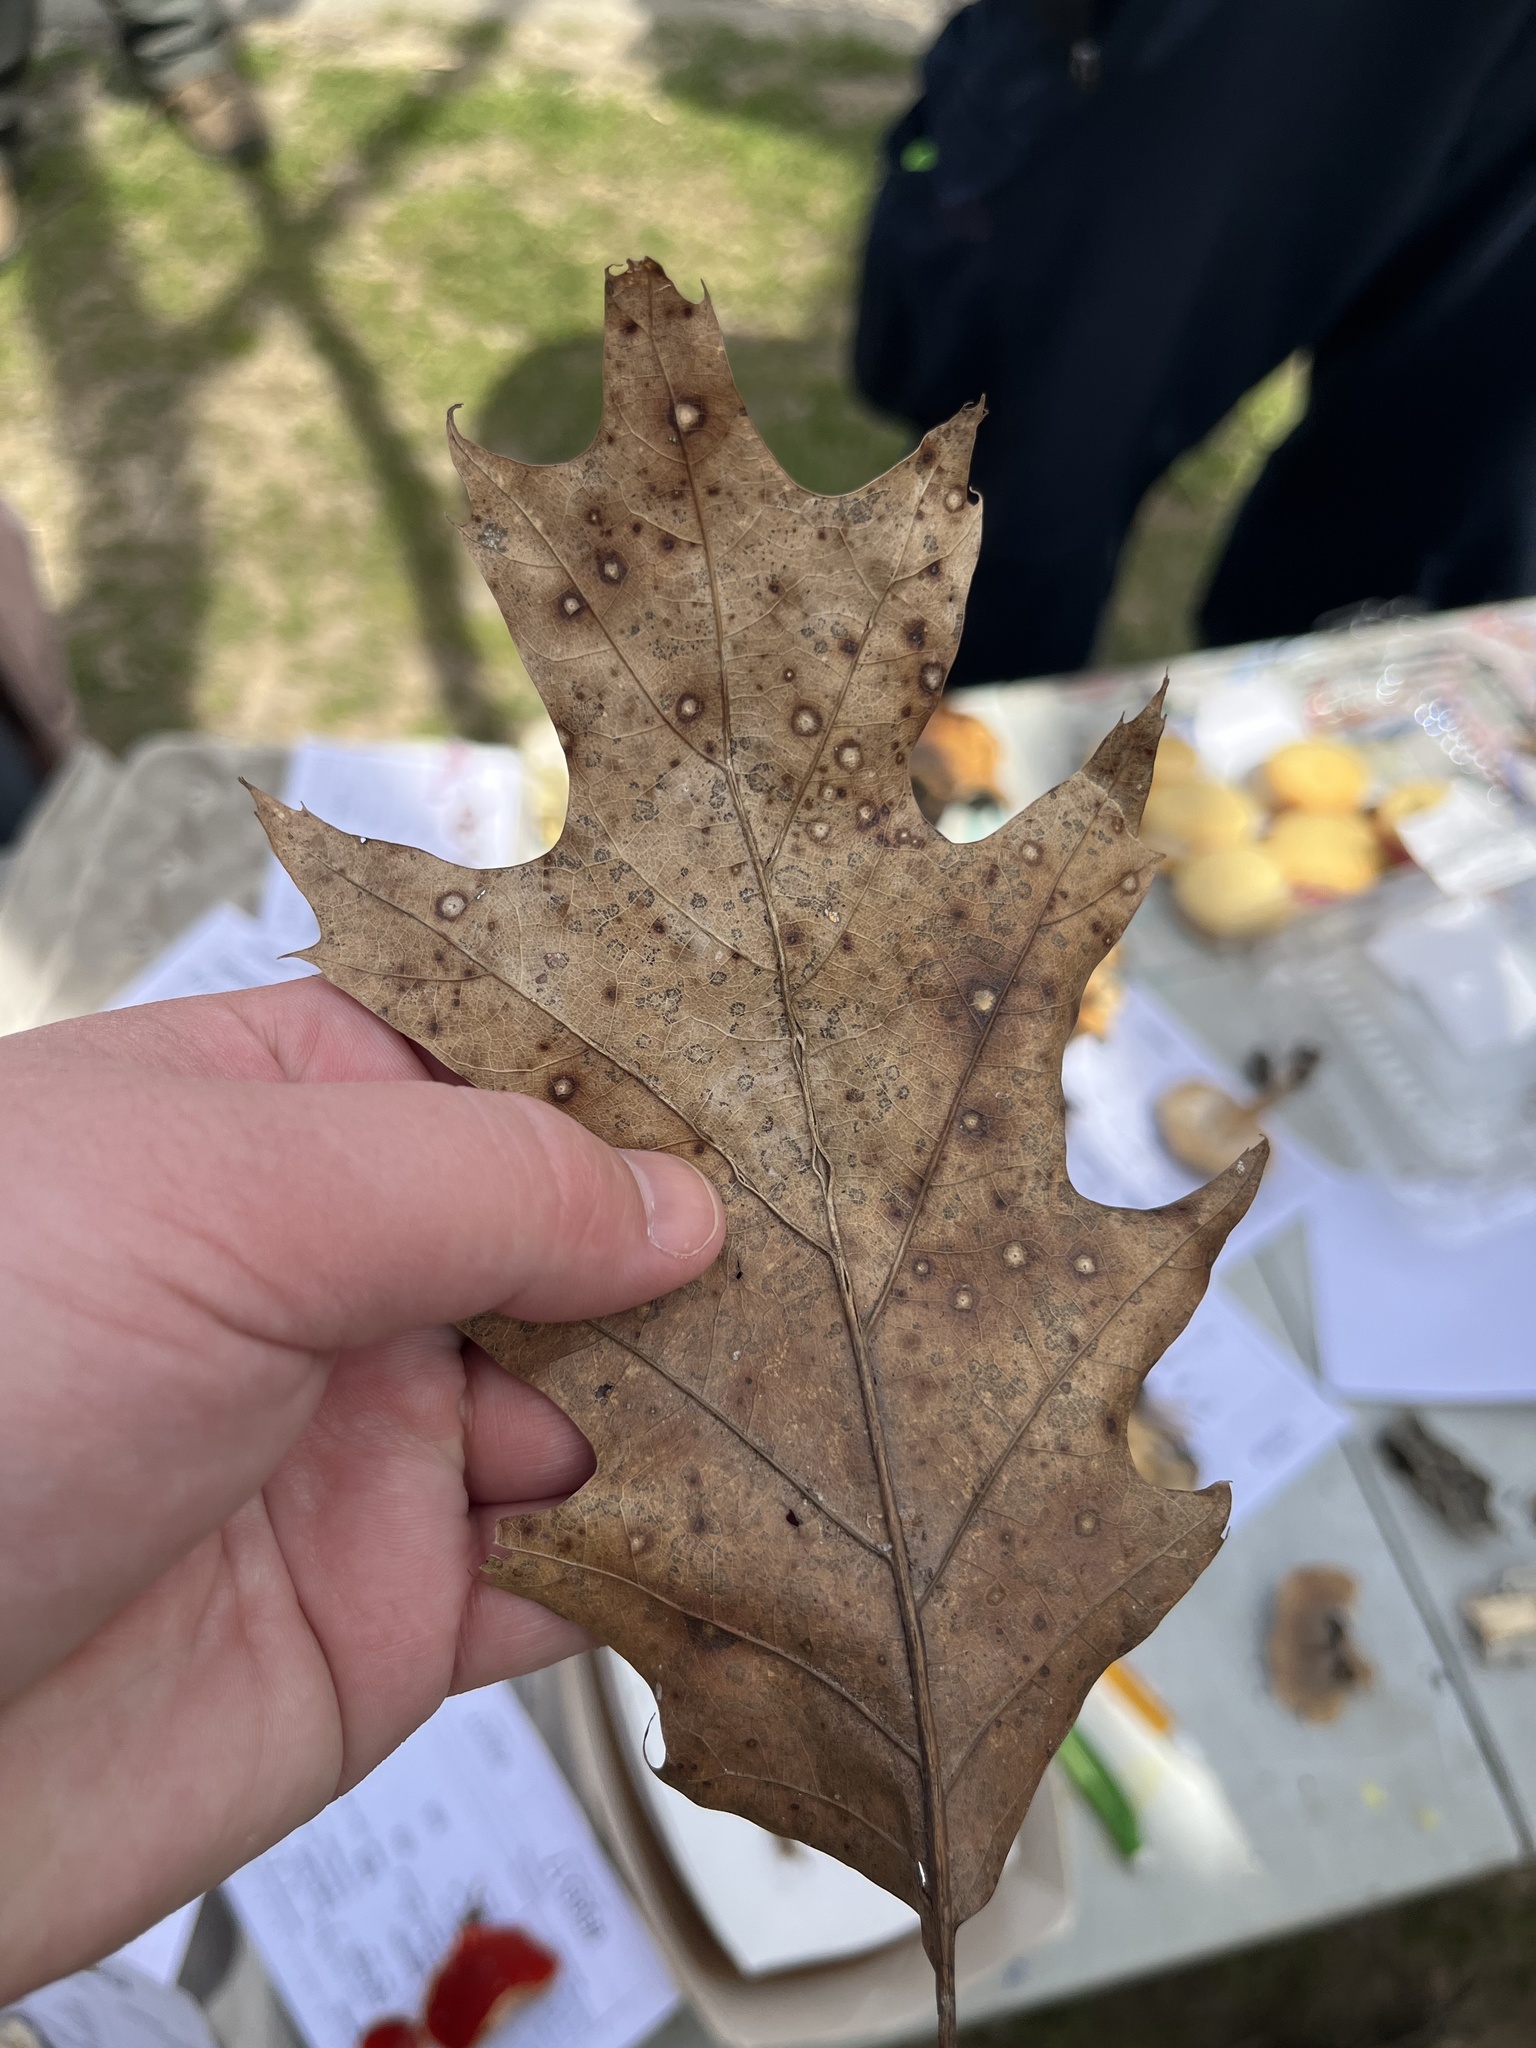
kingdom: Fungi
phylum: Ascomycota
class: Sordariomycetes
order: Diaporthales
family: Melanconidaceae
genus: Dicarpella
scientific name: Dicarpella dryina
